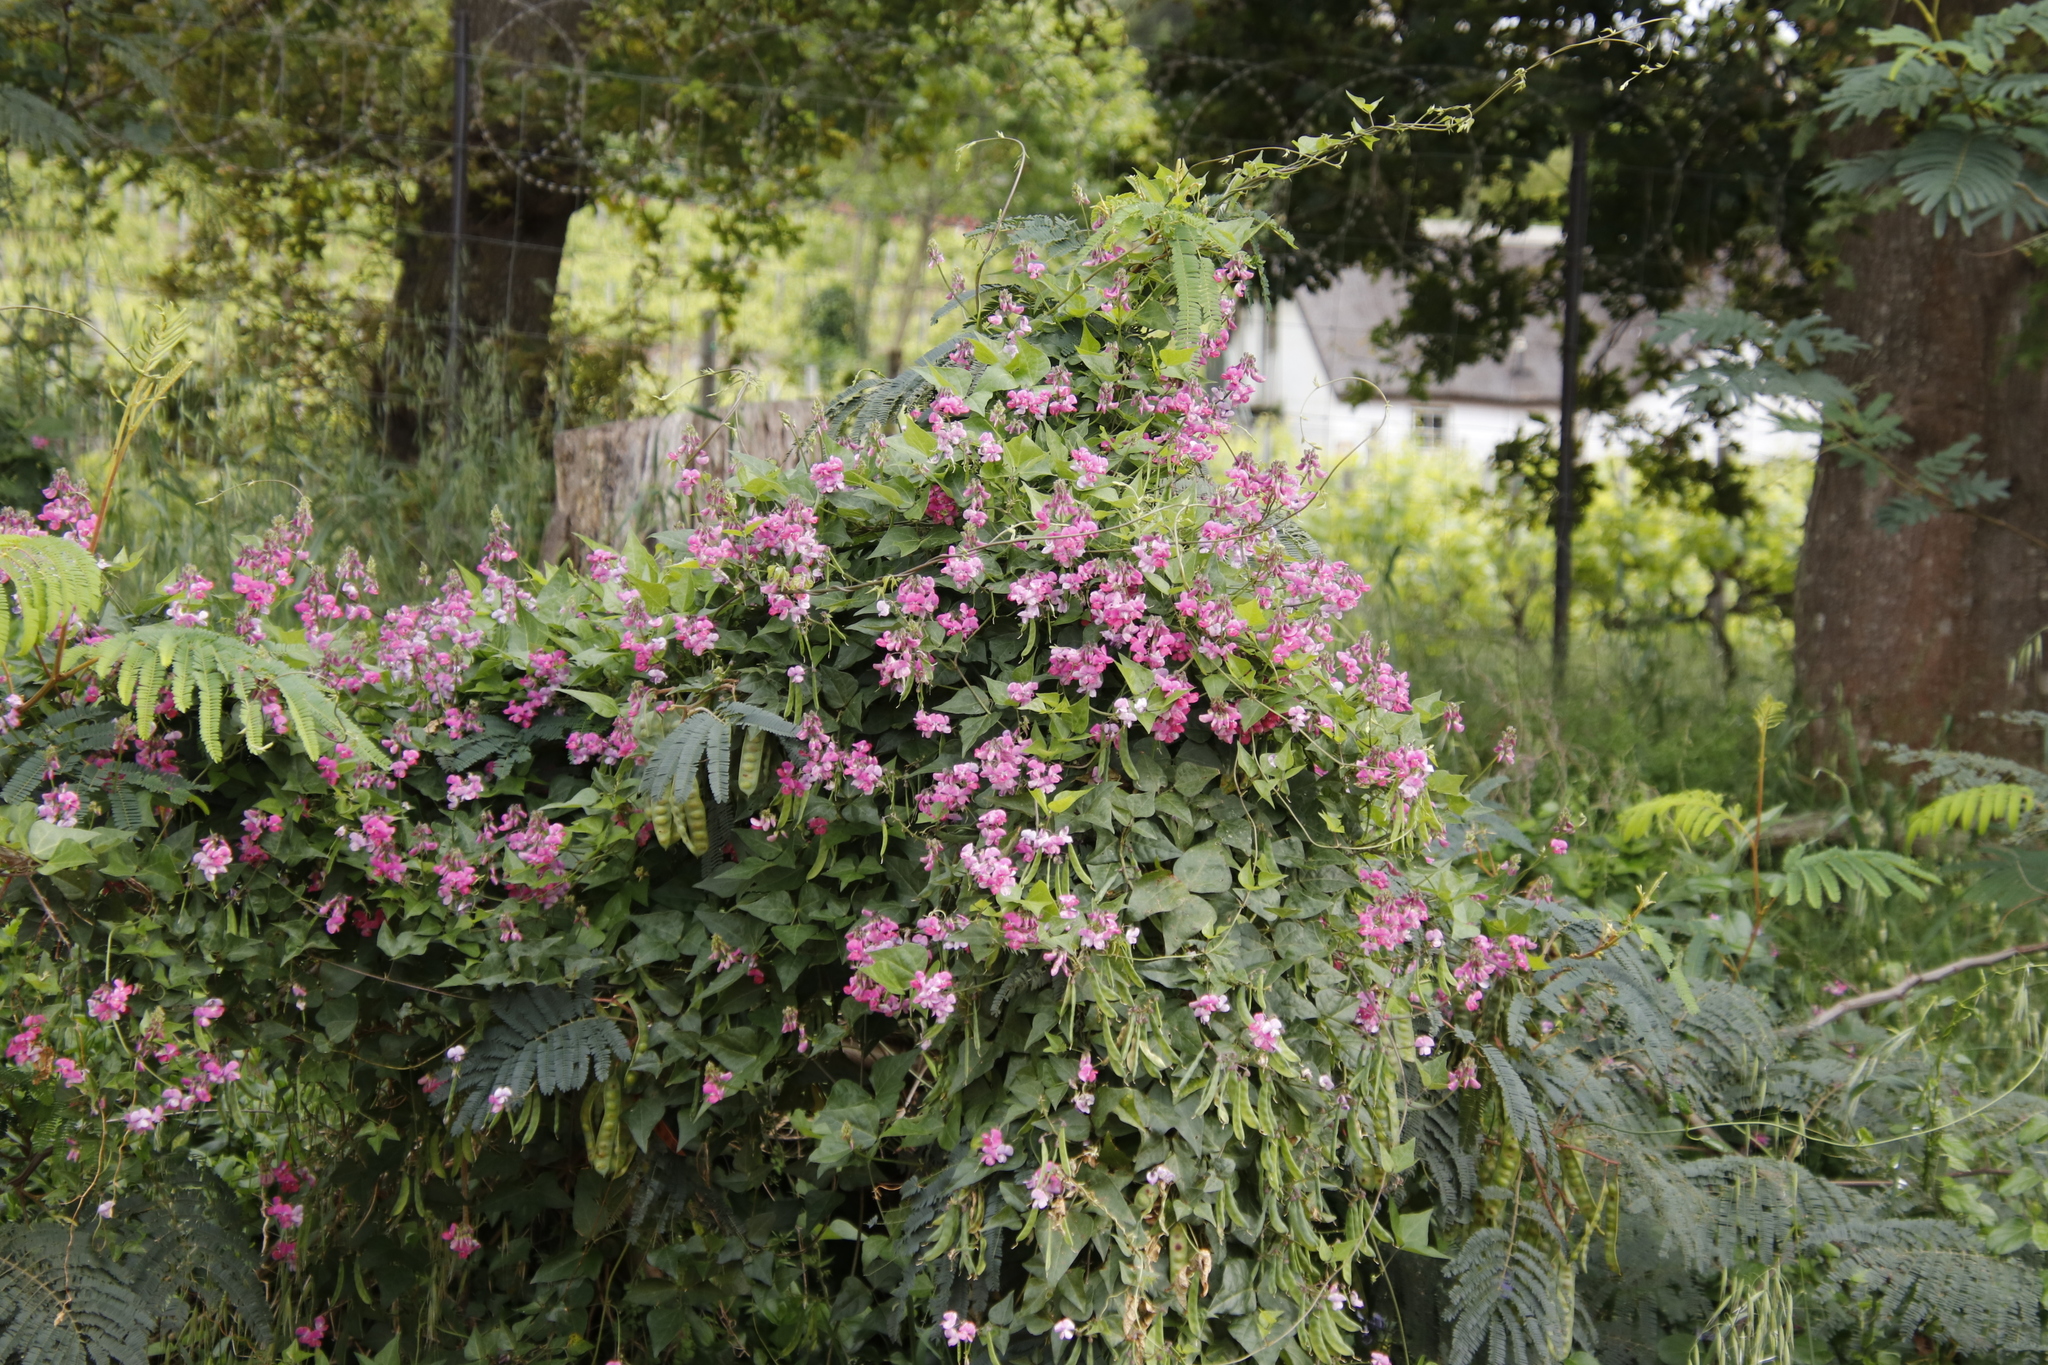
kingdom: Plantae
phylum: Tracheophyta
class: Magnoliopsida
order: Fabales
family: Fabaceae
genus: Dipogon
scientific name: Dipogon lignosus
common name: Okie bean
